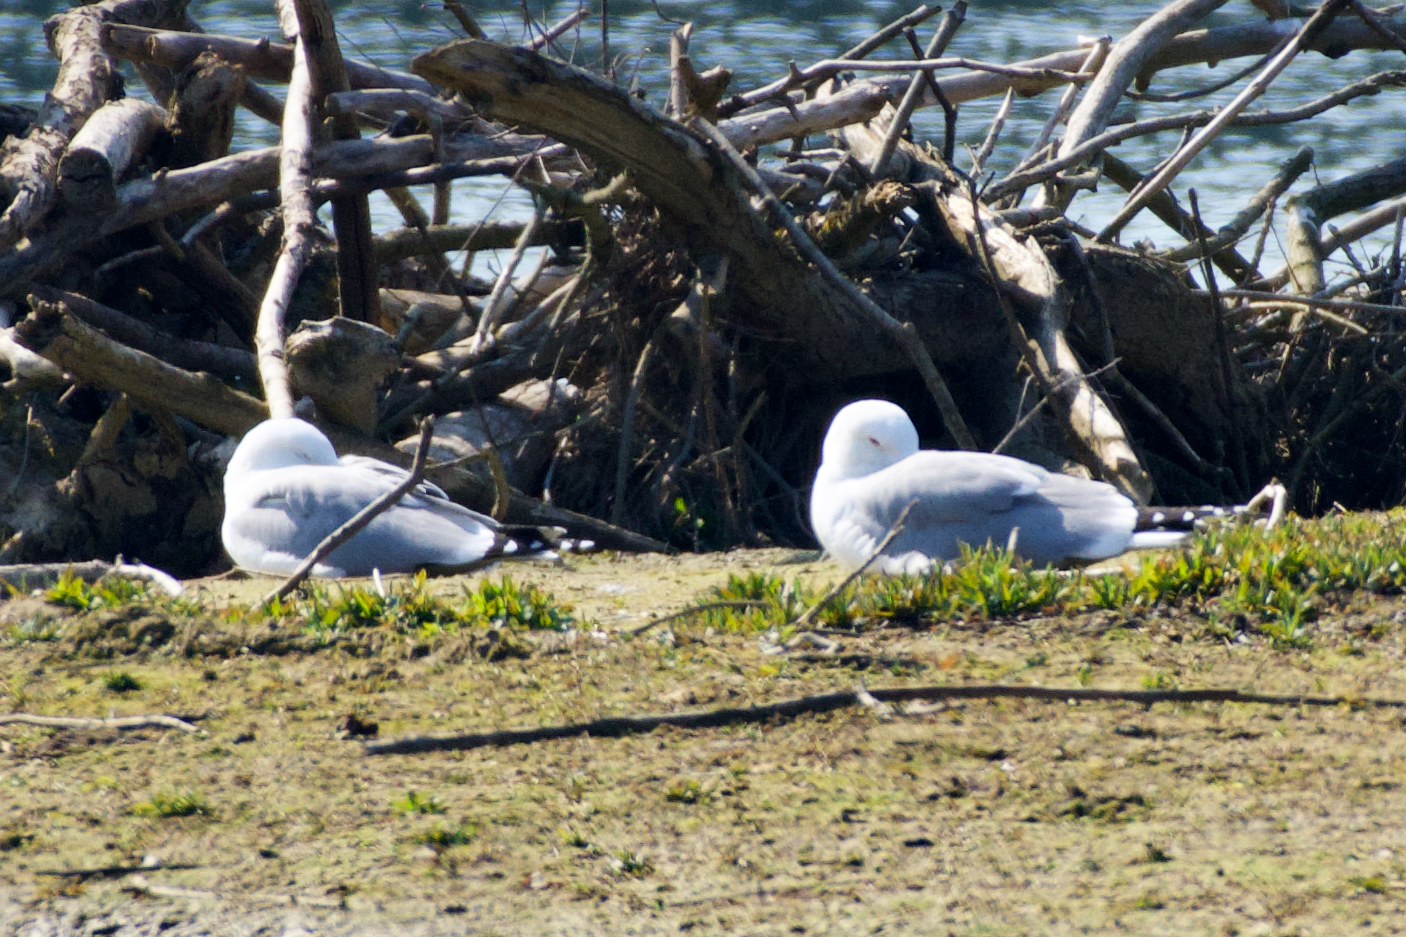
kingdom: Animalia
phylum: Chordata
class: Aves
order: Charadriiformes
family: Laridae
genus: Larus
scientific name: Larus michahellis
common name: Yellow-legged gull
